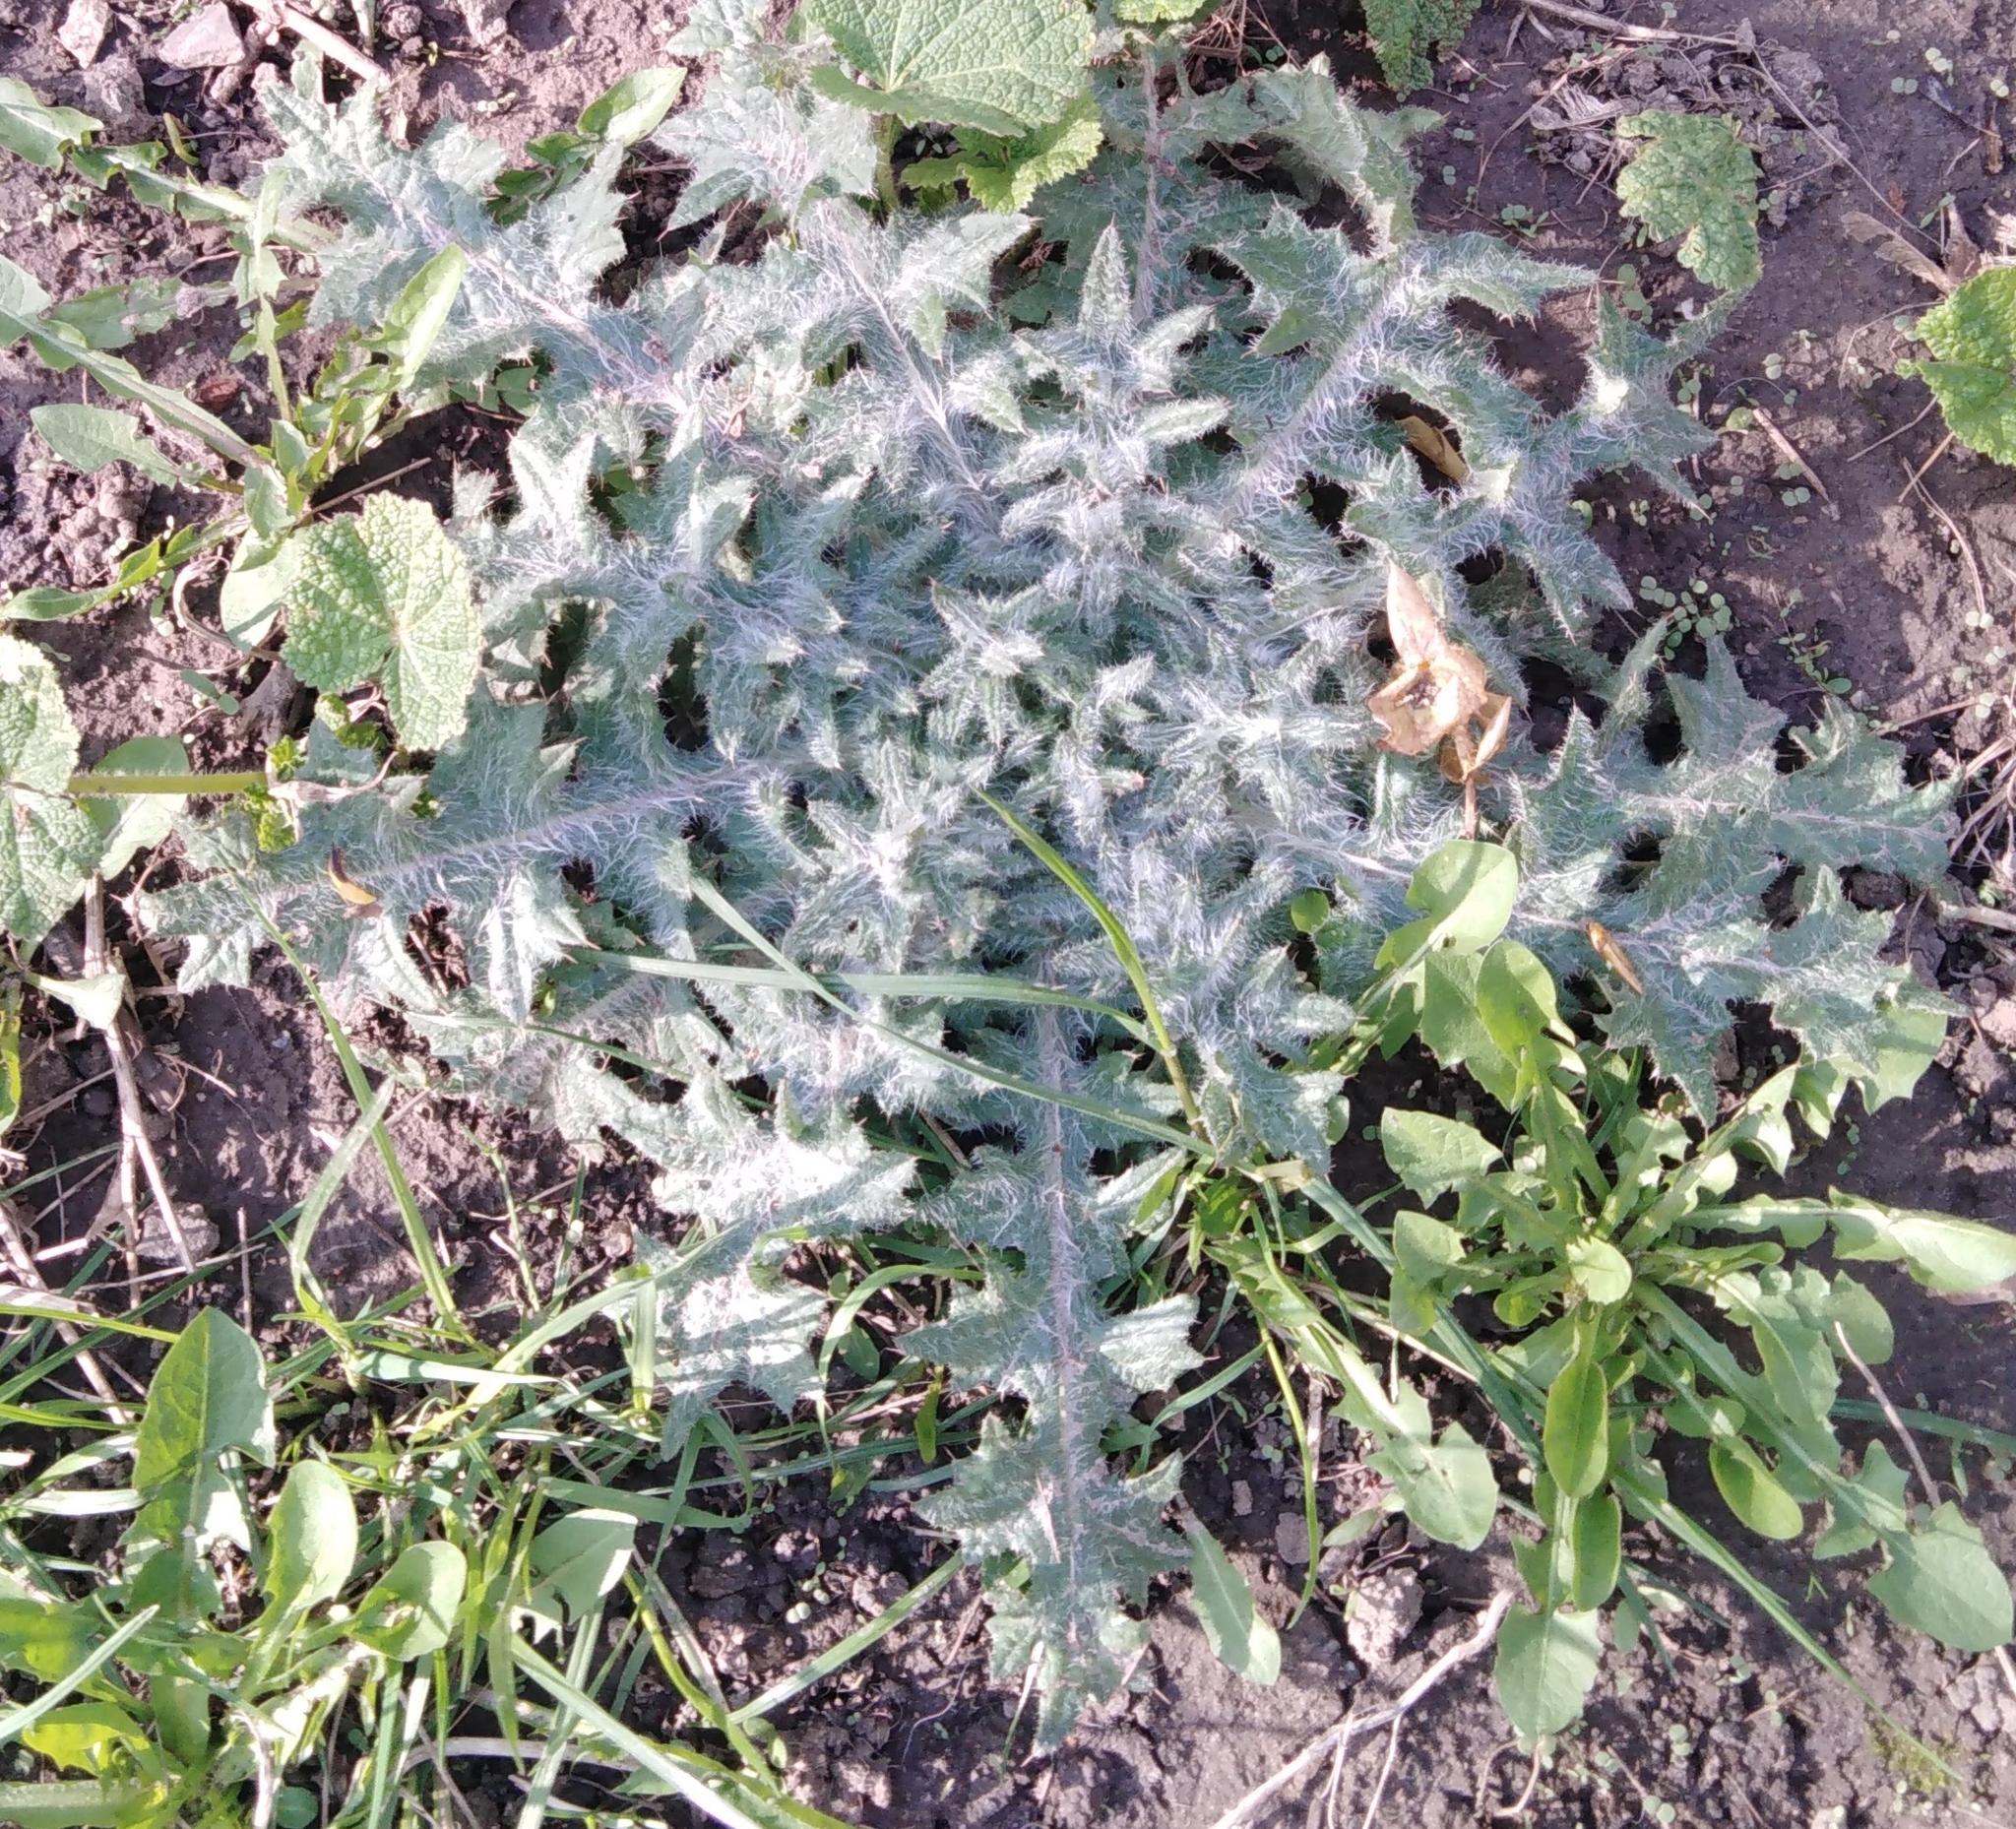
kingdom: Plantae
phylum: Tracheophyta
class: Magnoliopsida
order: Asterales
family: Asteraceae
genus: Cirsium
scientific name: Cirsium vulgare
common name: Bull thistle
